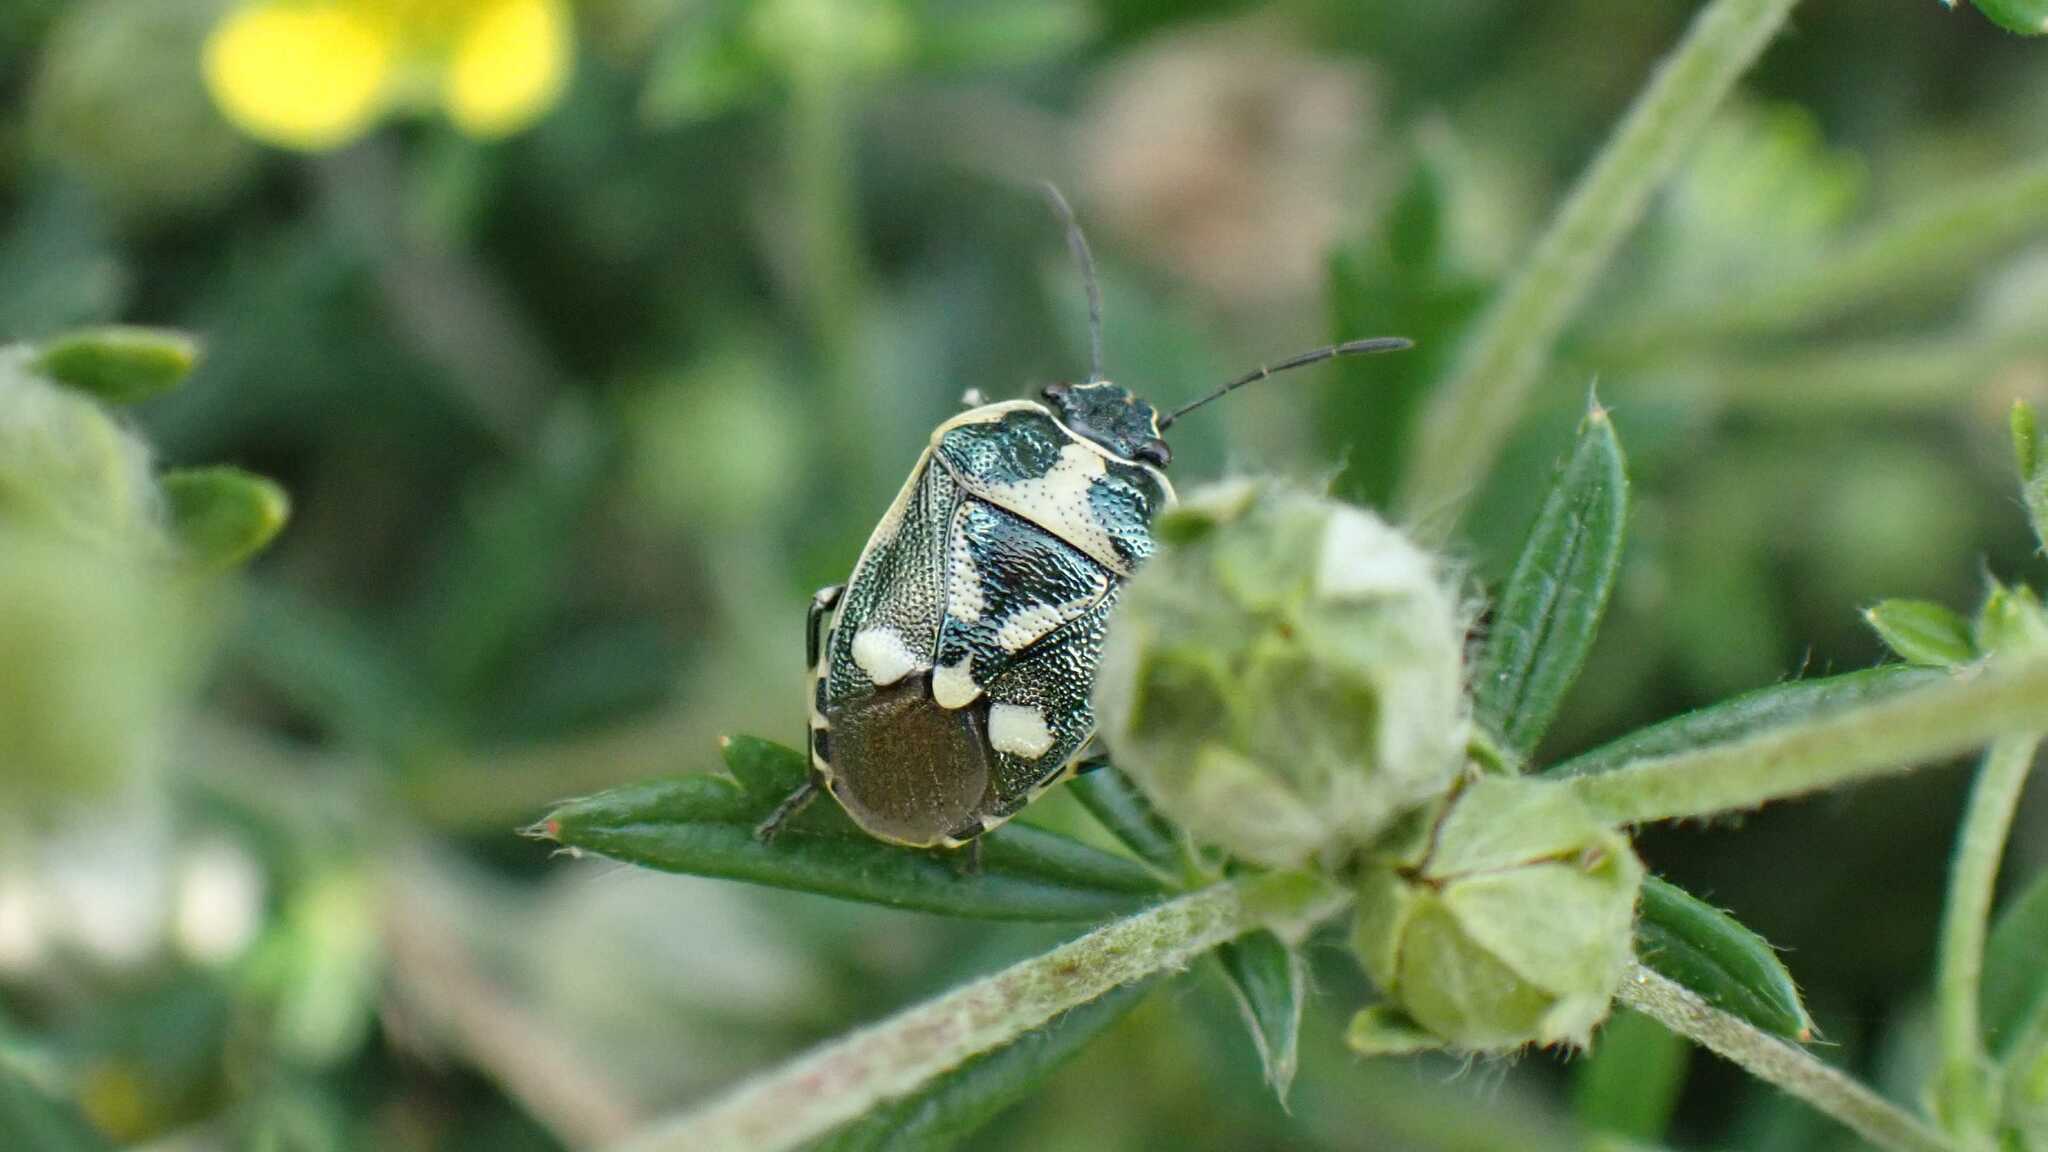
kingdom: Animalia
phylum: Arthropoda
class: Insecta
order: Hemiptera
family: Pentatomidae
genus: Eurydema
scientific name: Eurydema oleracea
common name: Cabbage bug
